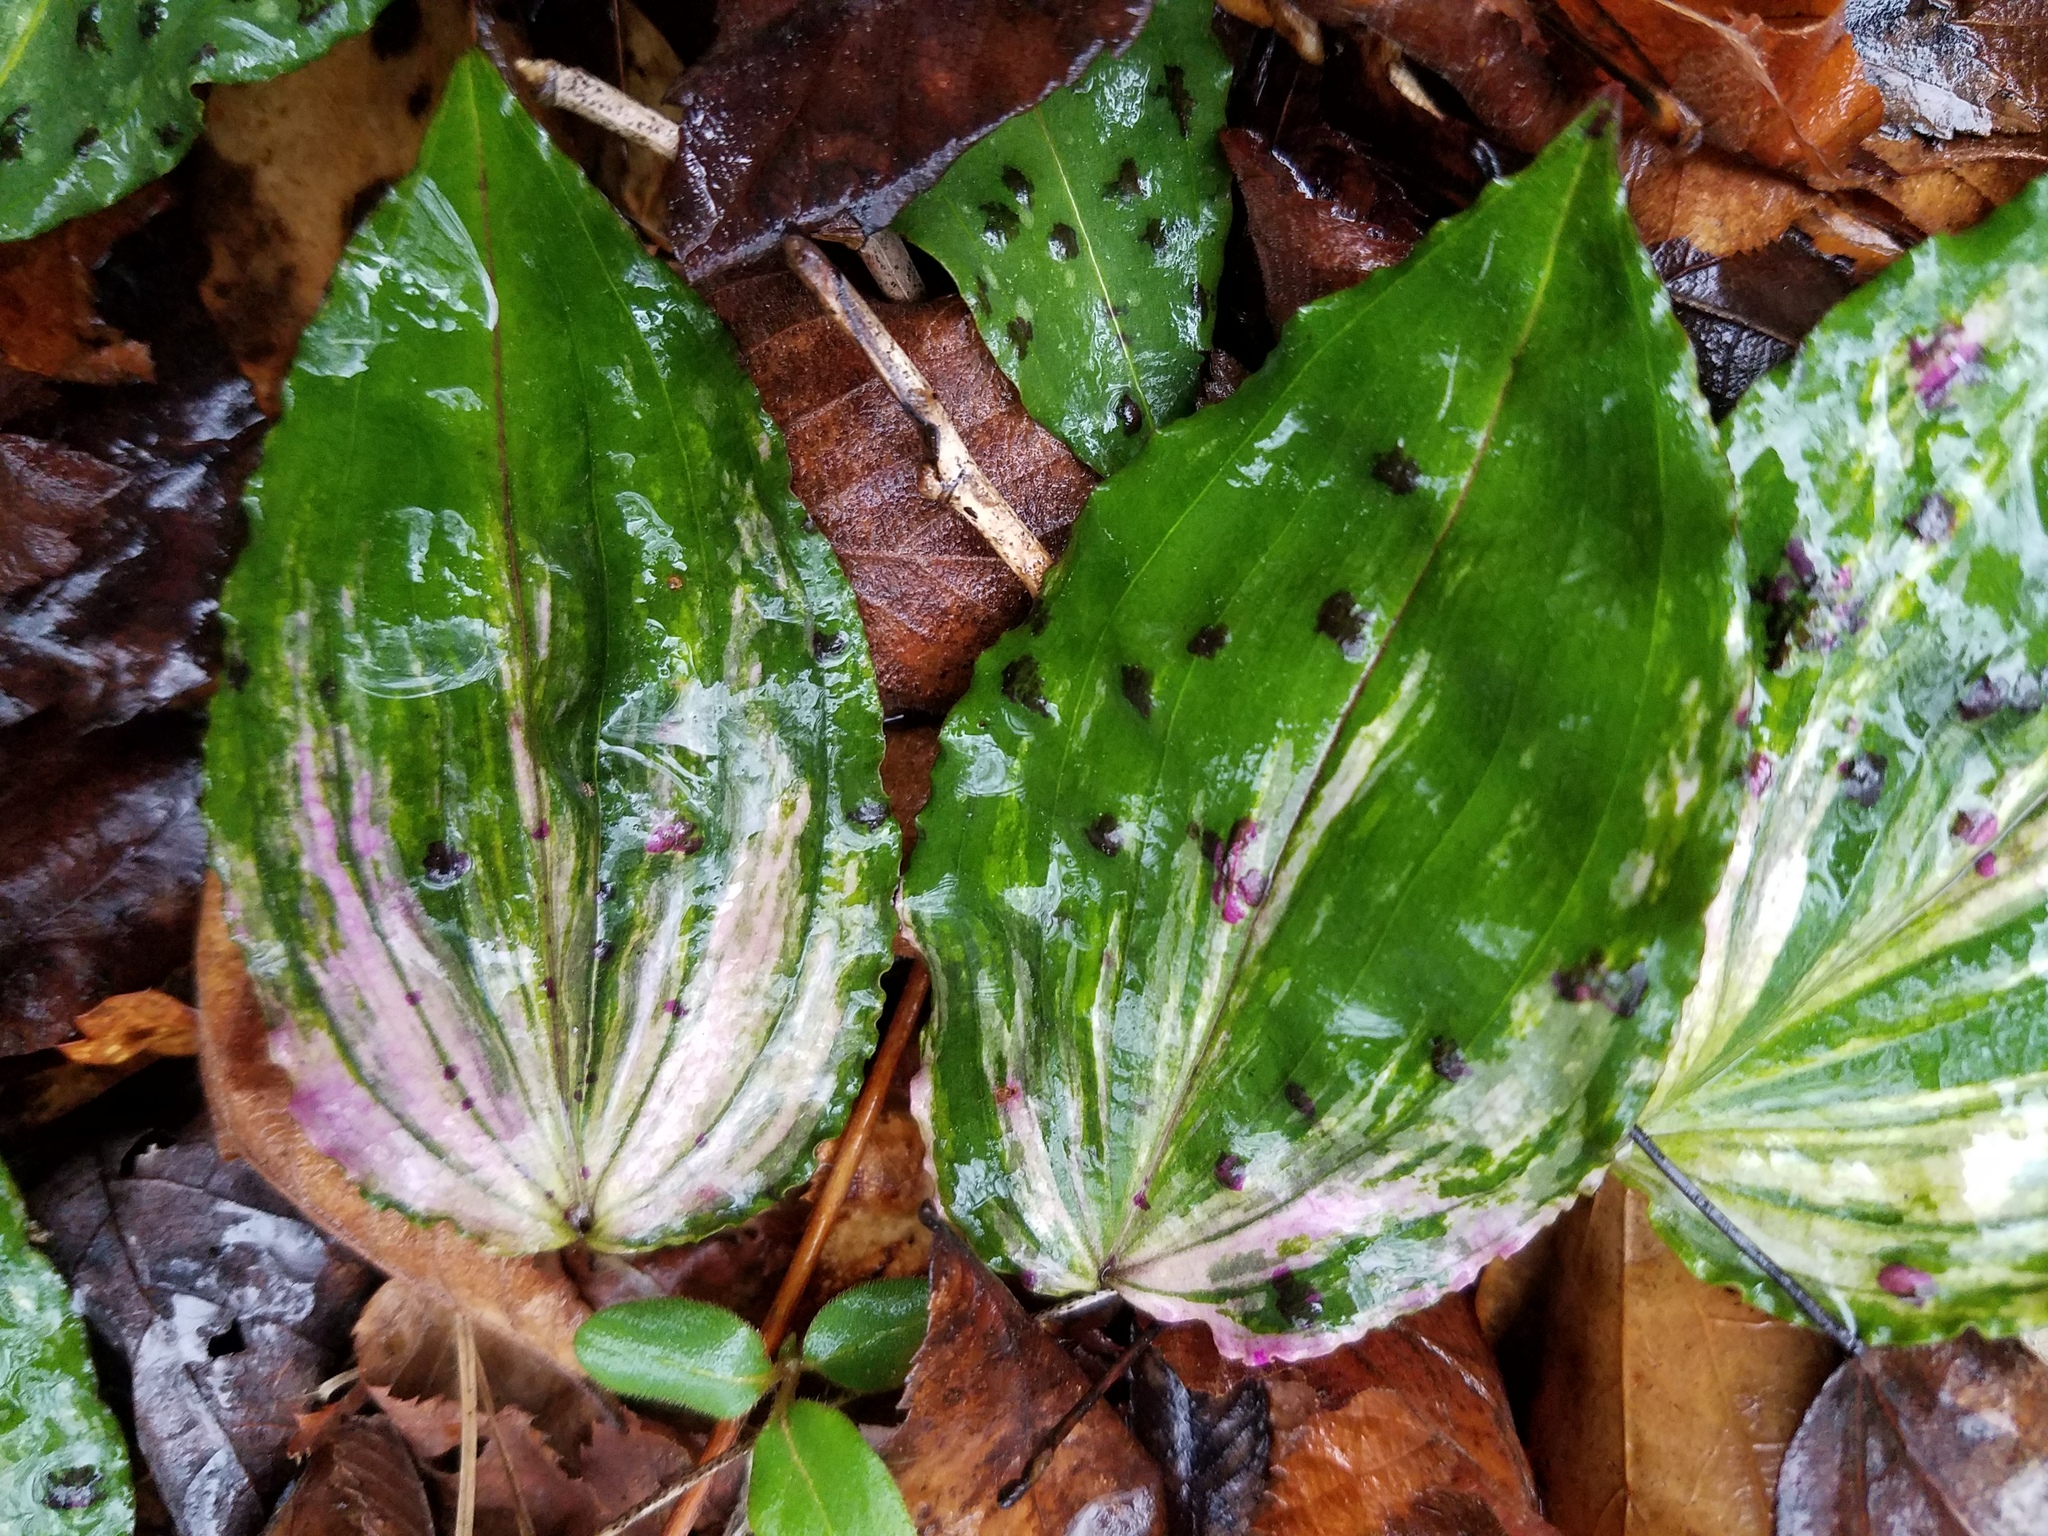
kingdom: Plantae
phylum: Tracheophyta
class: Liliopsida
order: Asparagales
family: Orchidaceae
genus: Tipularia
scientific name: Tipularia discolor
